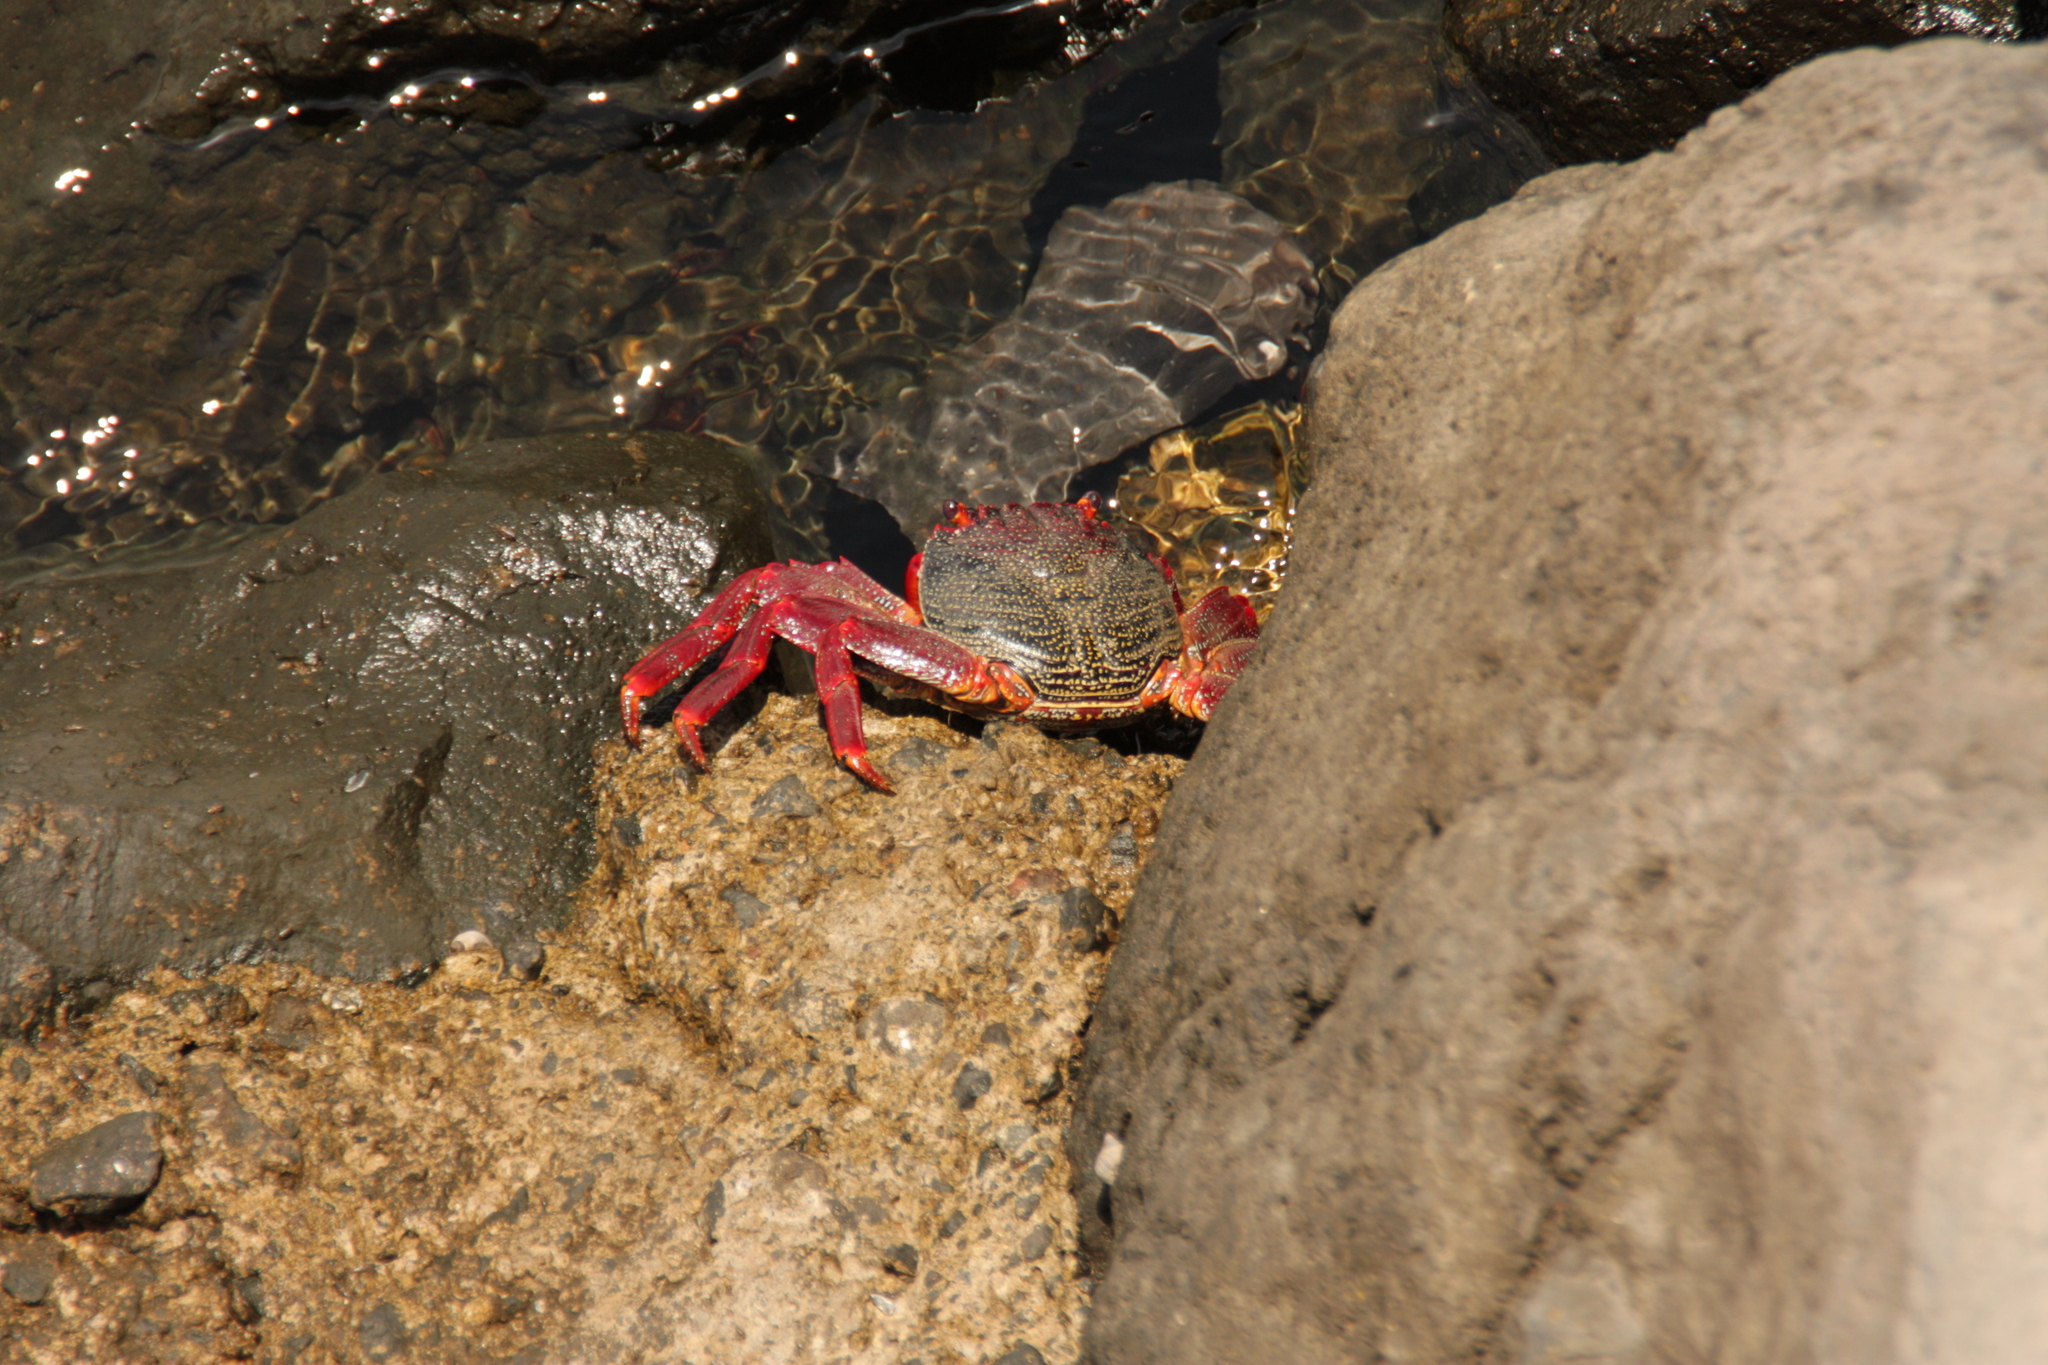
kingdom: Animalia
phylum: Arthropoda
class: Malacostraca
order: Decapoda
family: Grapsidae
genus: Grapsus
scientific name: Grapsus adscensionis
